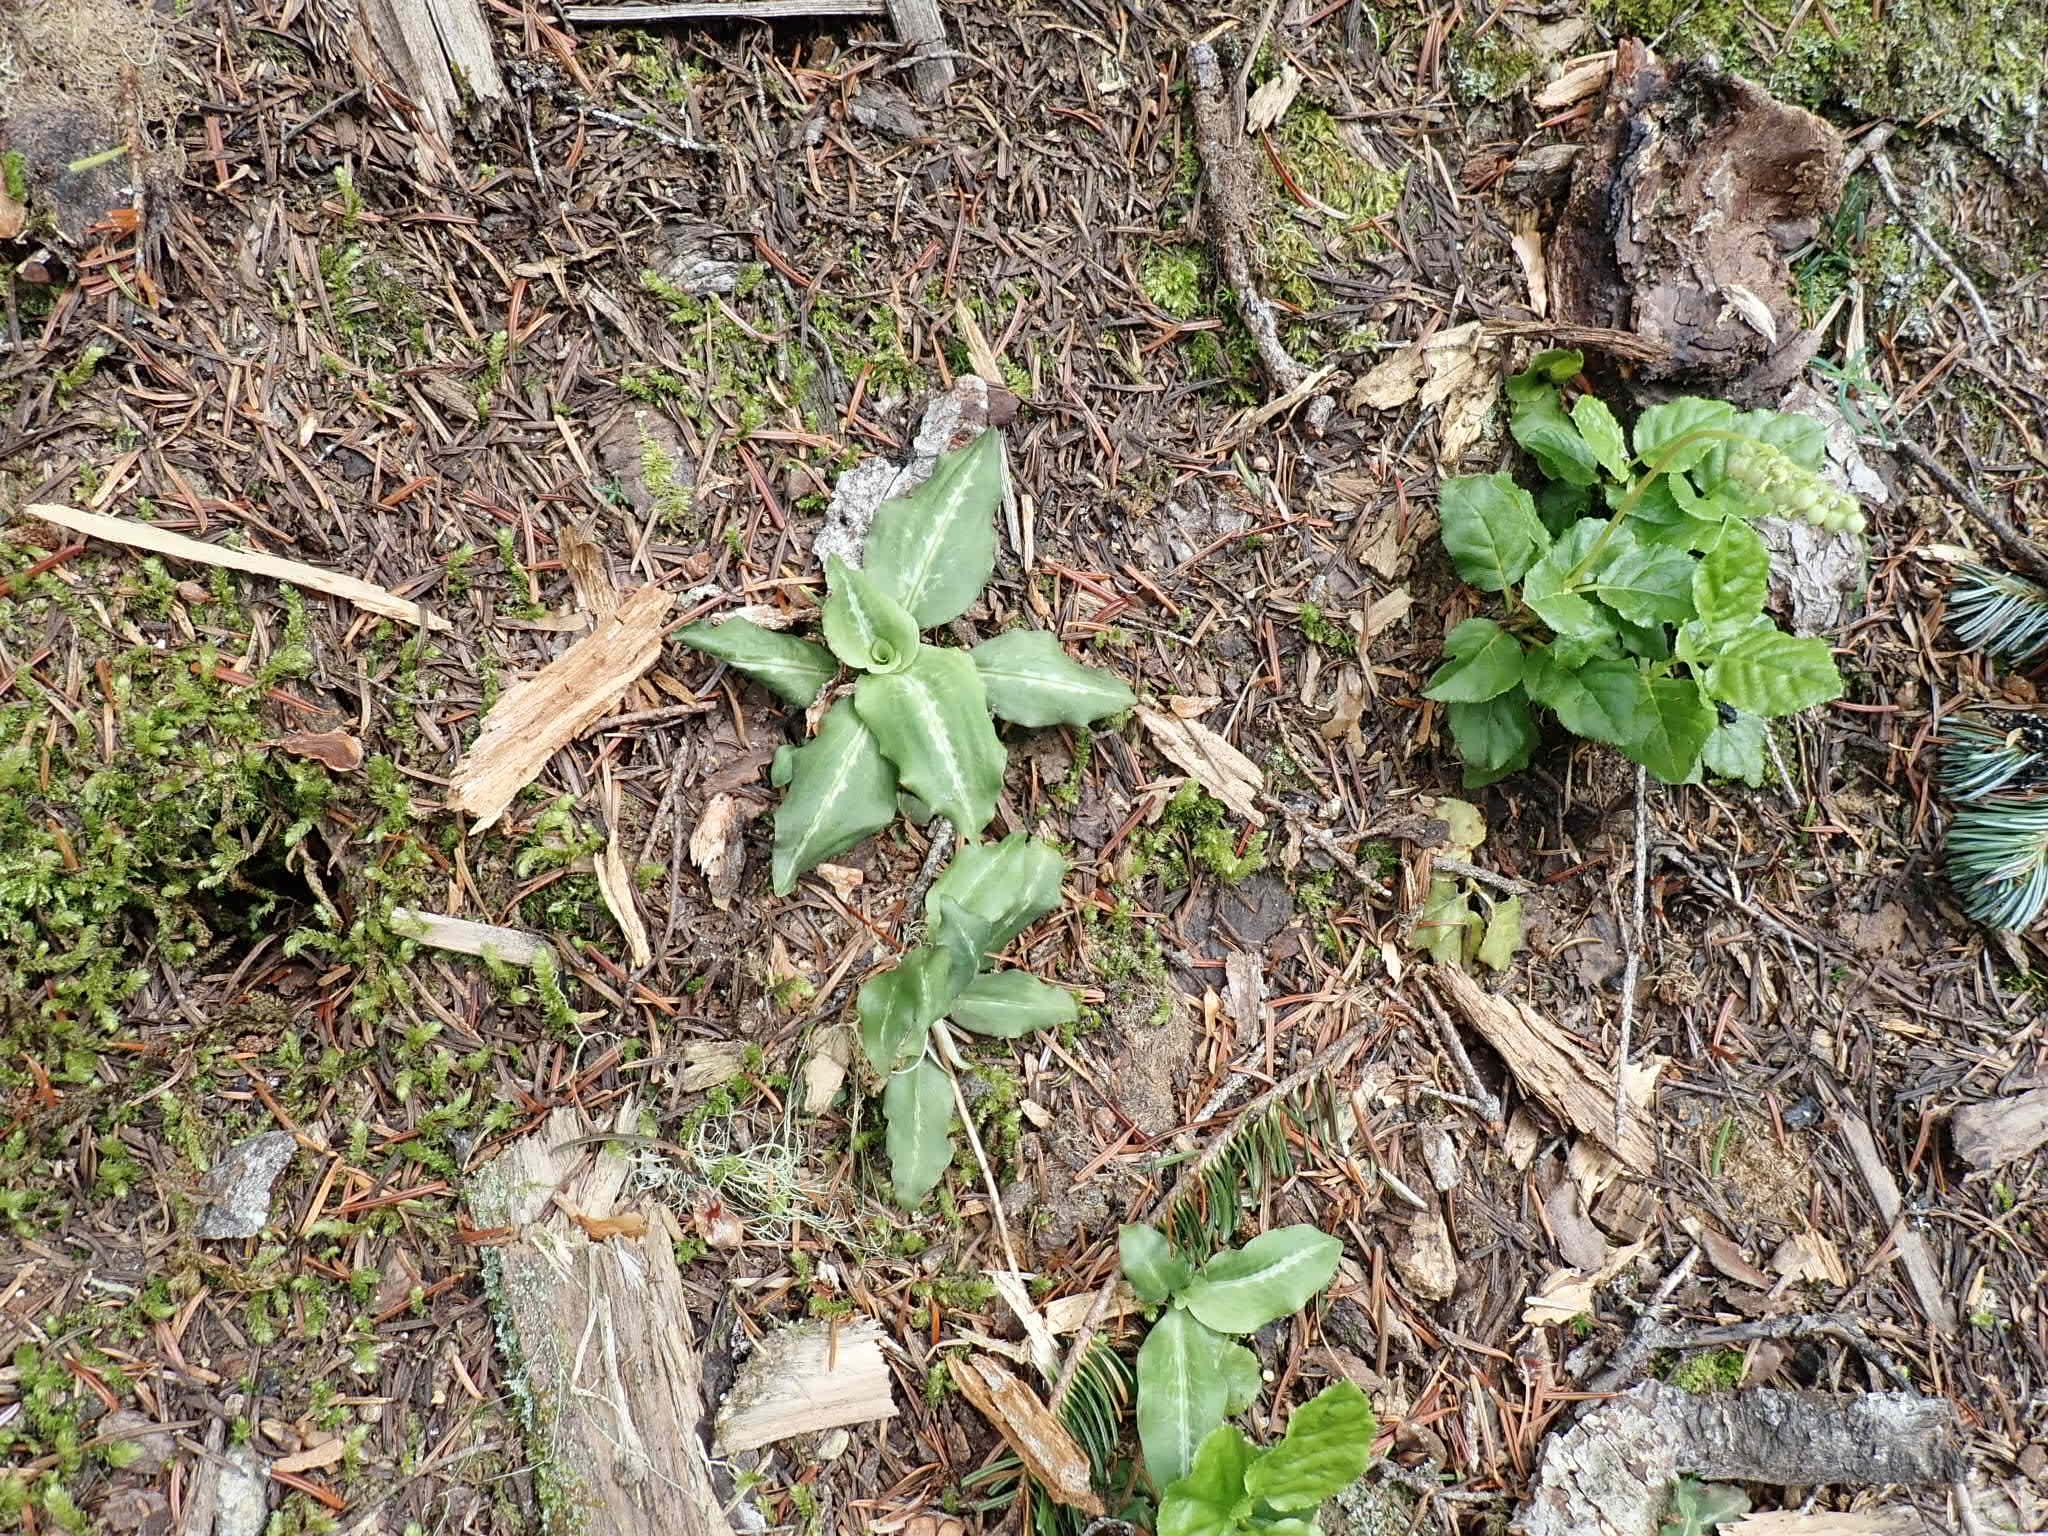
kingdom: Plantae
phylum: Tracheophyta
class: Liliopsida
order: Asparagales
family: Orchidaceae
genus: Goodyera
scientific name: Goodyera oblongifolia
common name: Giant rattlesnake-plantain
